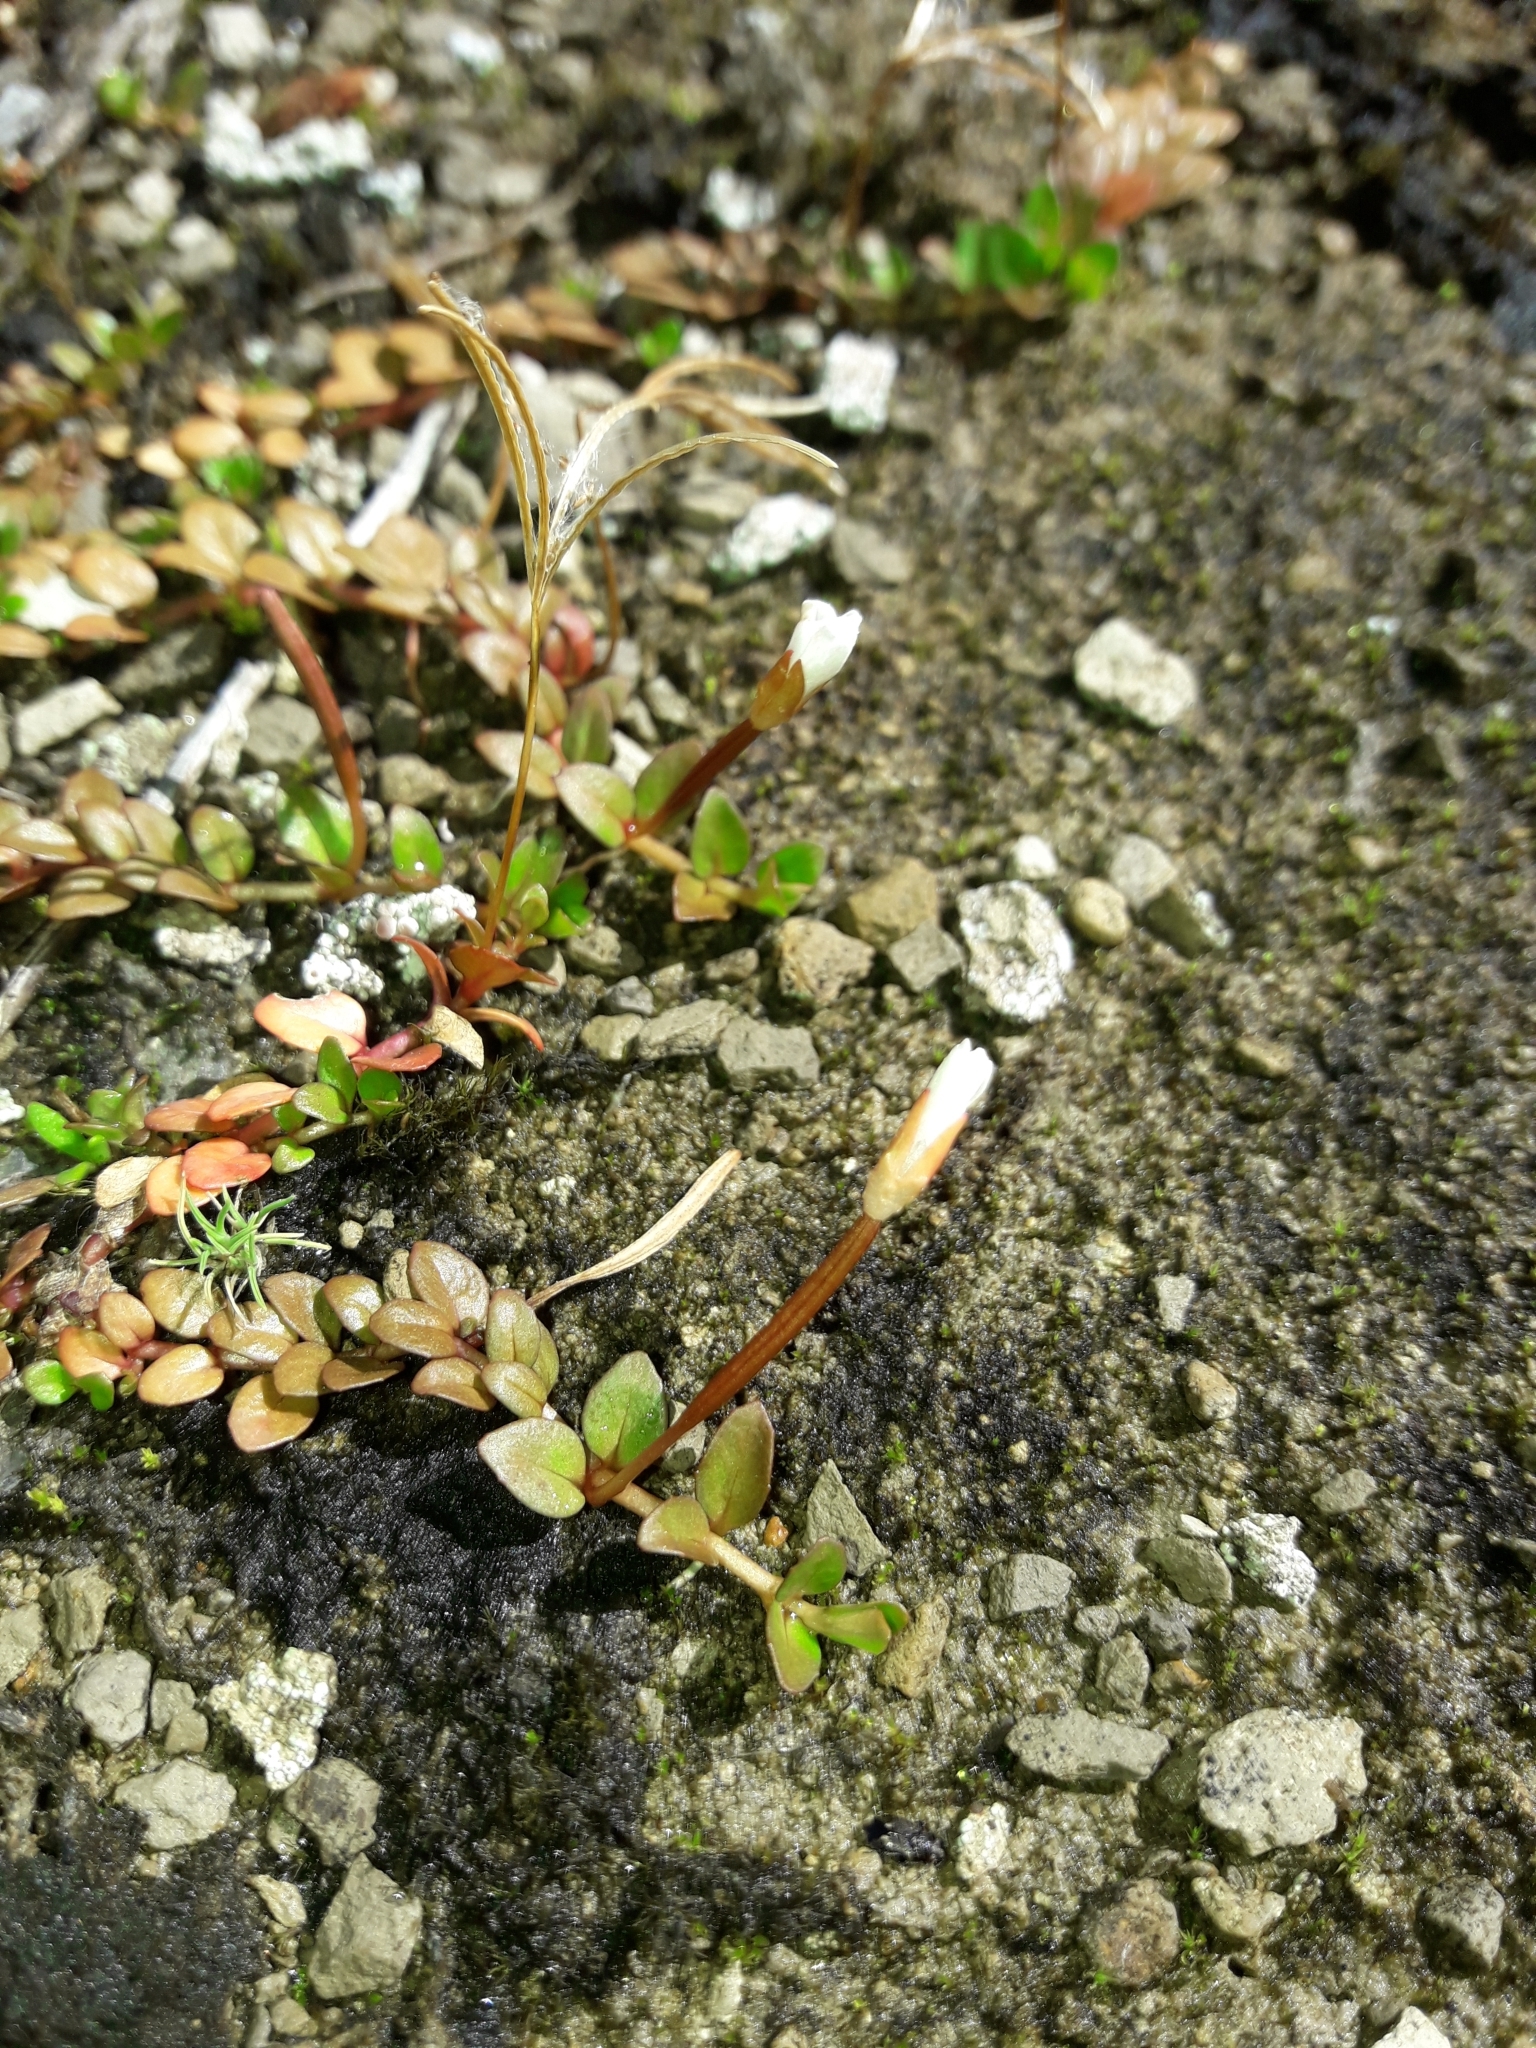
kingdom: Plantae
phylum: Tracheophyta
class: Magnoliopsida
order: Myrtales
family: Onagraceae
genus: Epilobium
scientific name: Epilobium komarovianum
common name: Bronzy willowherb
